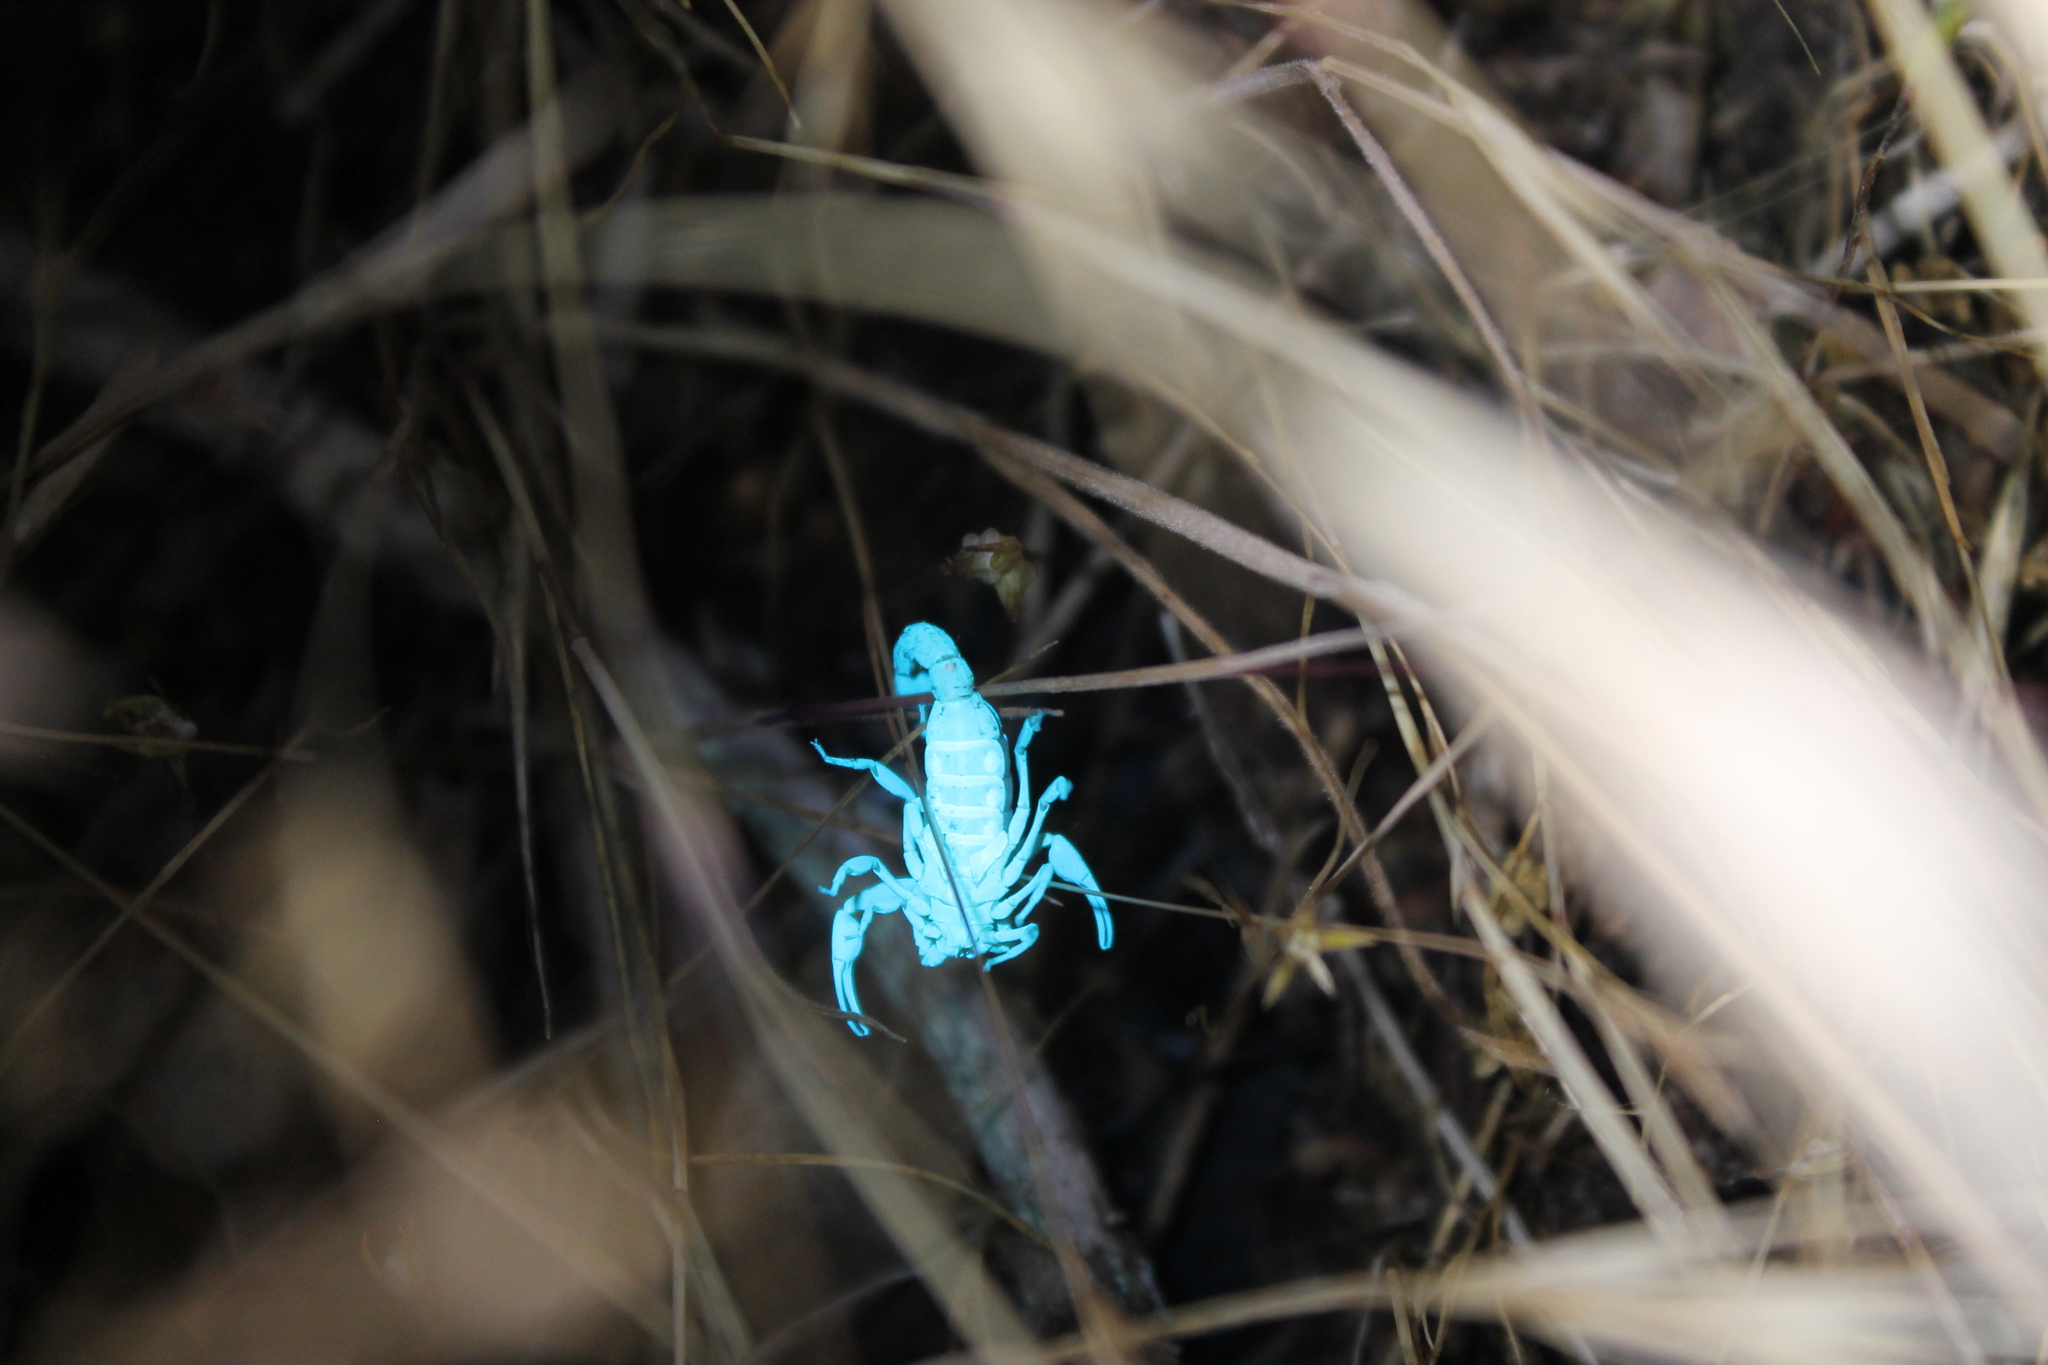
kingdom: Animalia
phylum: Arthropoda
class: Arachnida
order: Scorpiones
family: Vaejovidae
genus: Serradigitus
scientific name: Serradigitus gertschi
